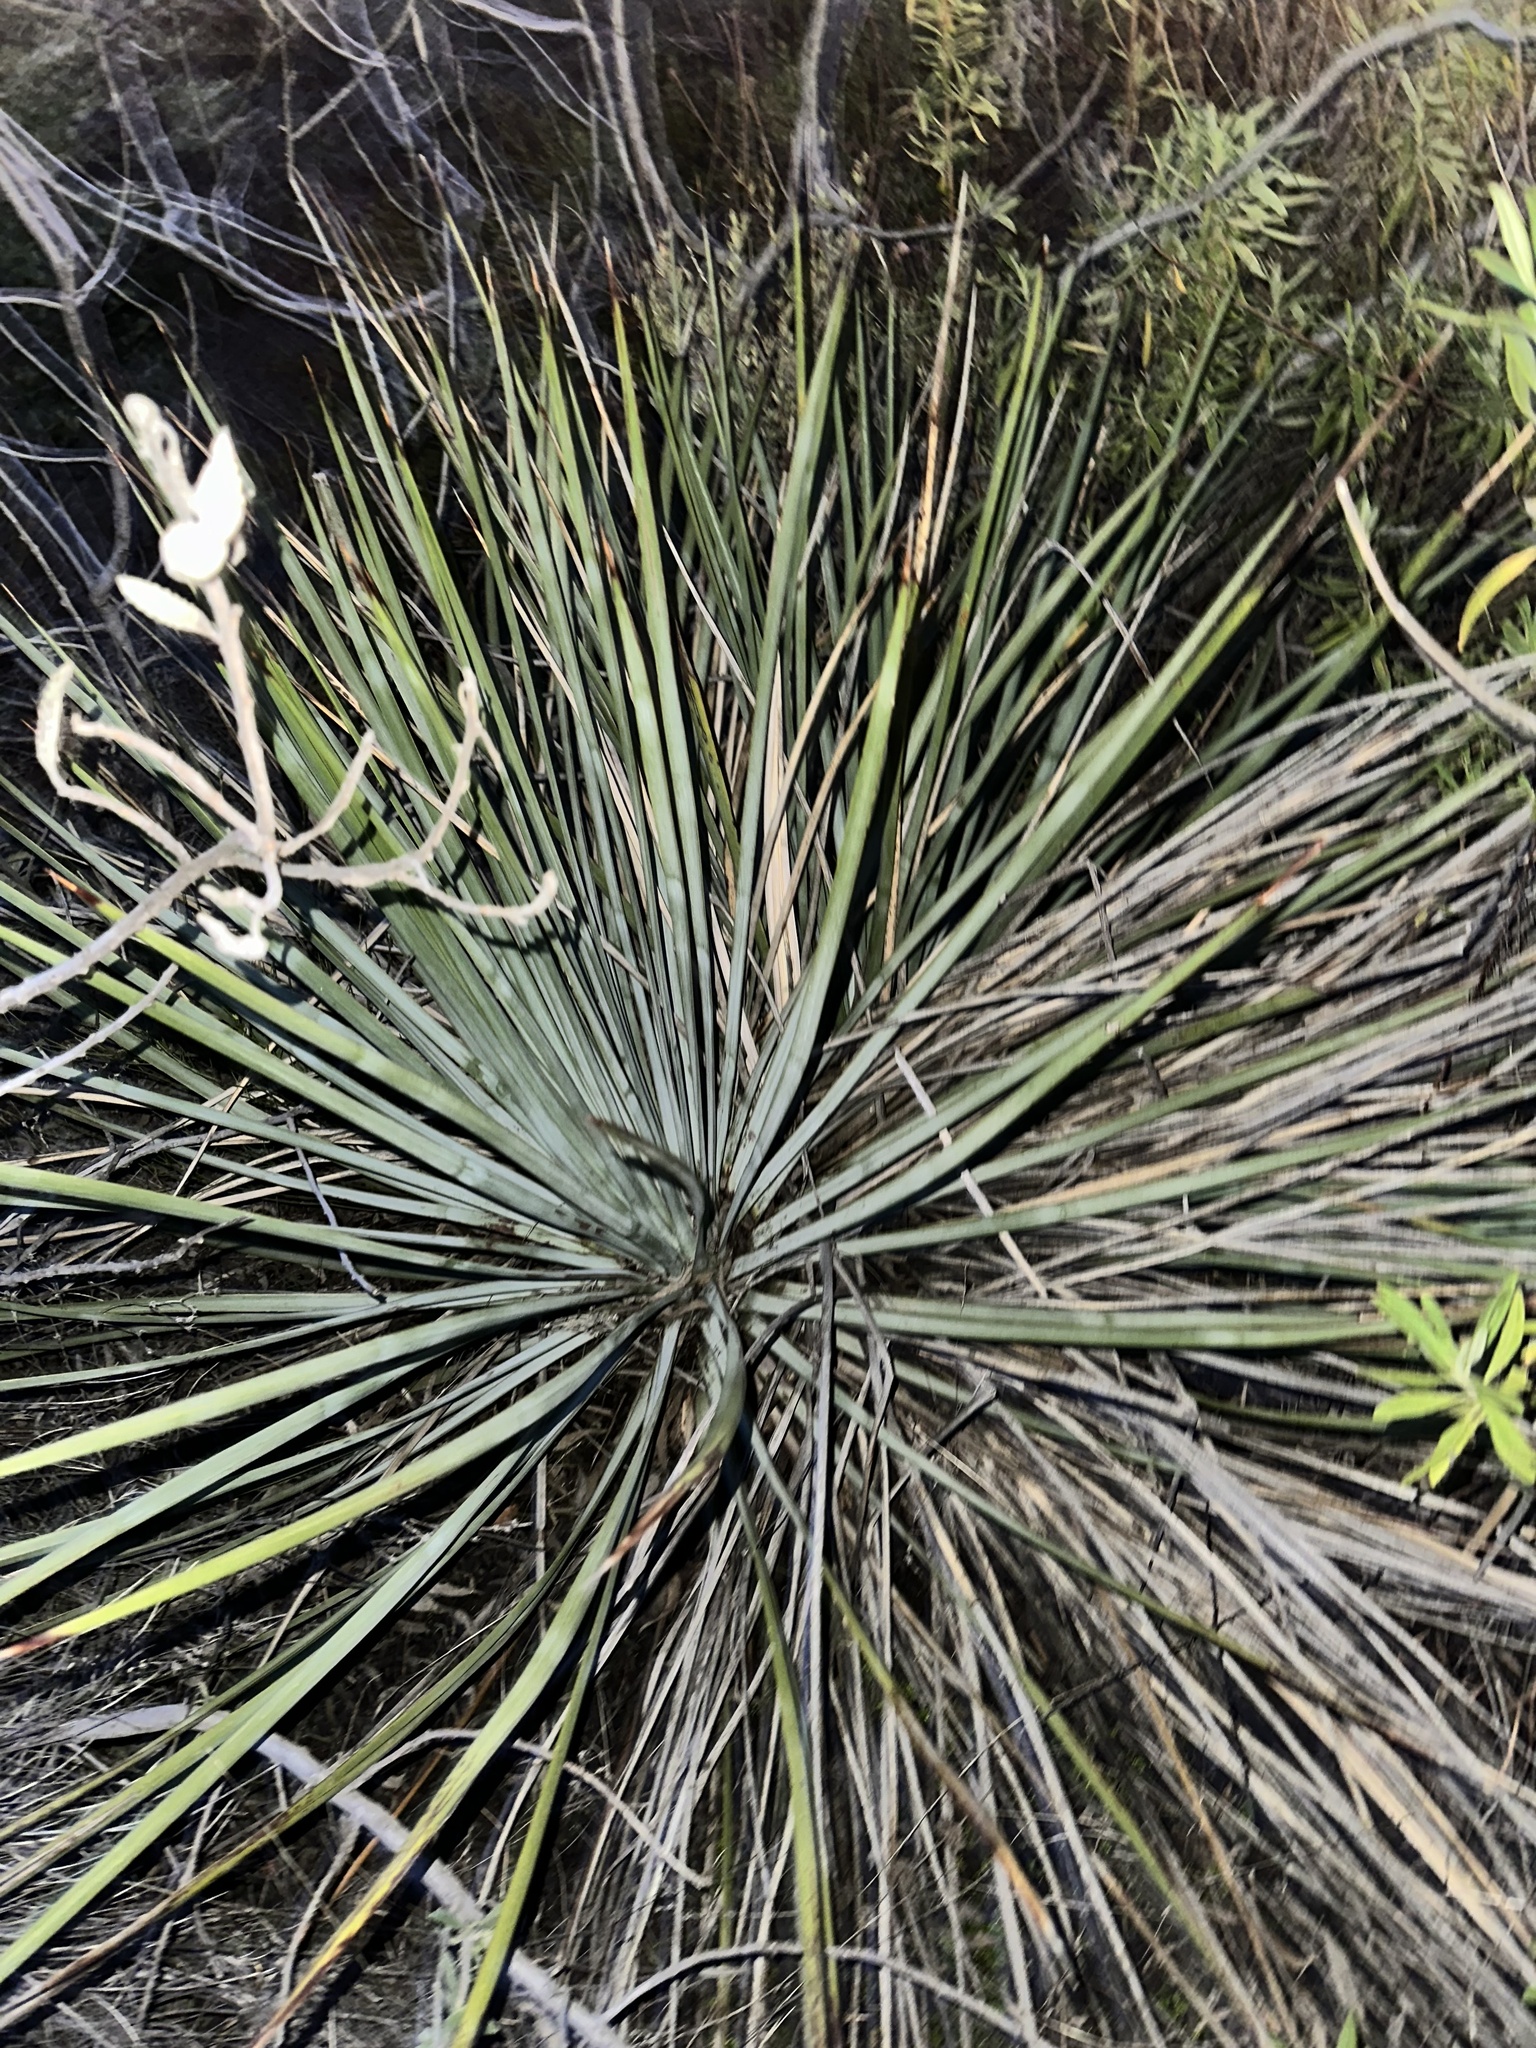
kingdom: Plantae
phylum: Tracheophyta
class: Liliopsida
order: Asparagales
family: Asparagaceae
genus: Hesperoyucca
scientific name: Hesperoyucca whipplei
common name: Our lord's-candle
